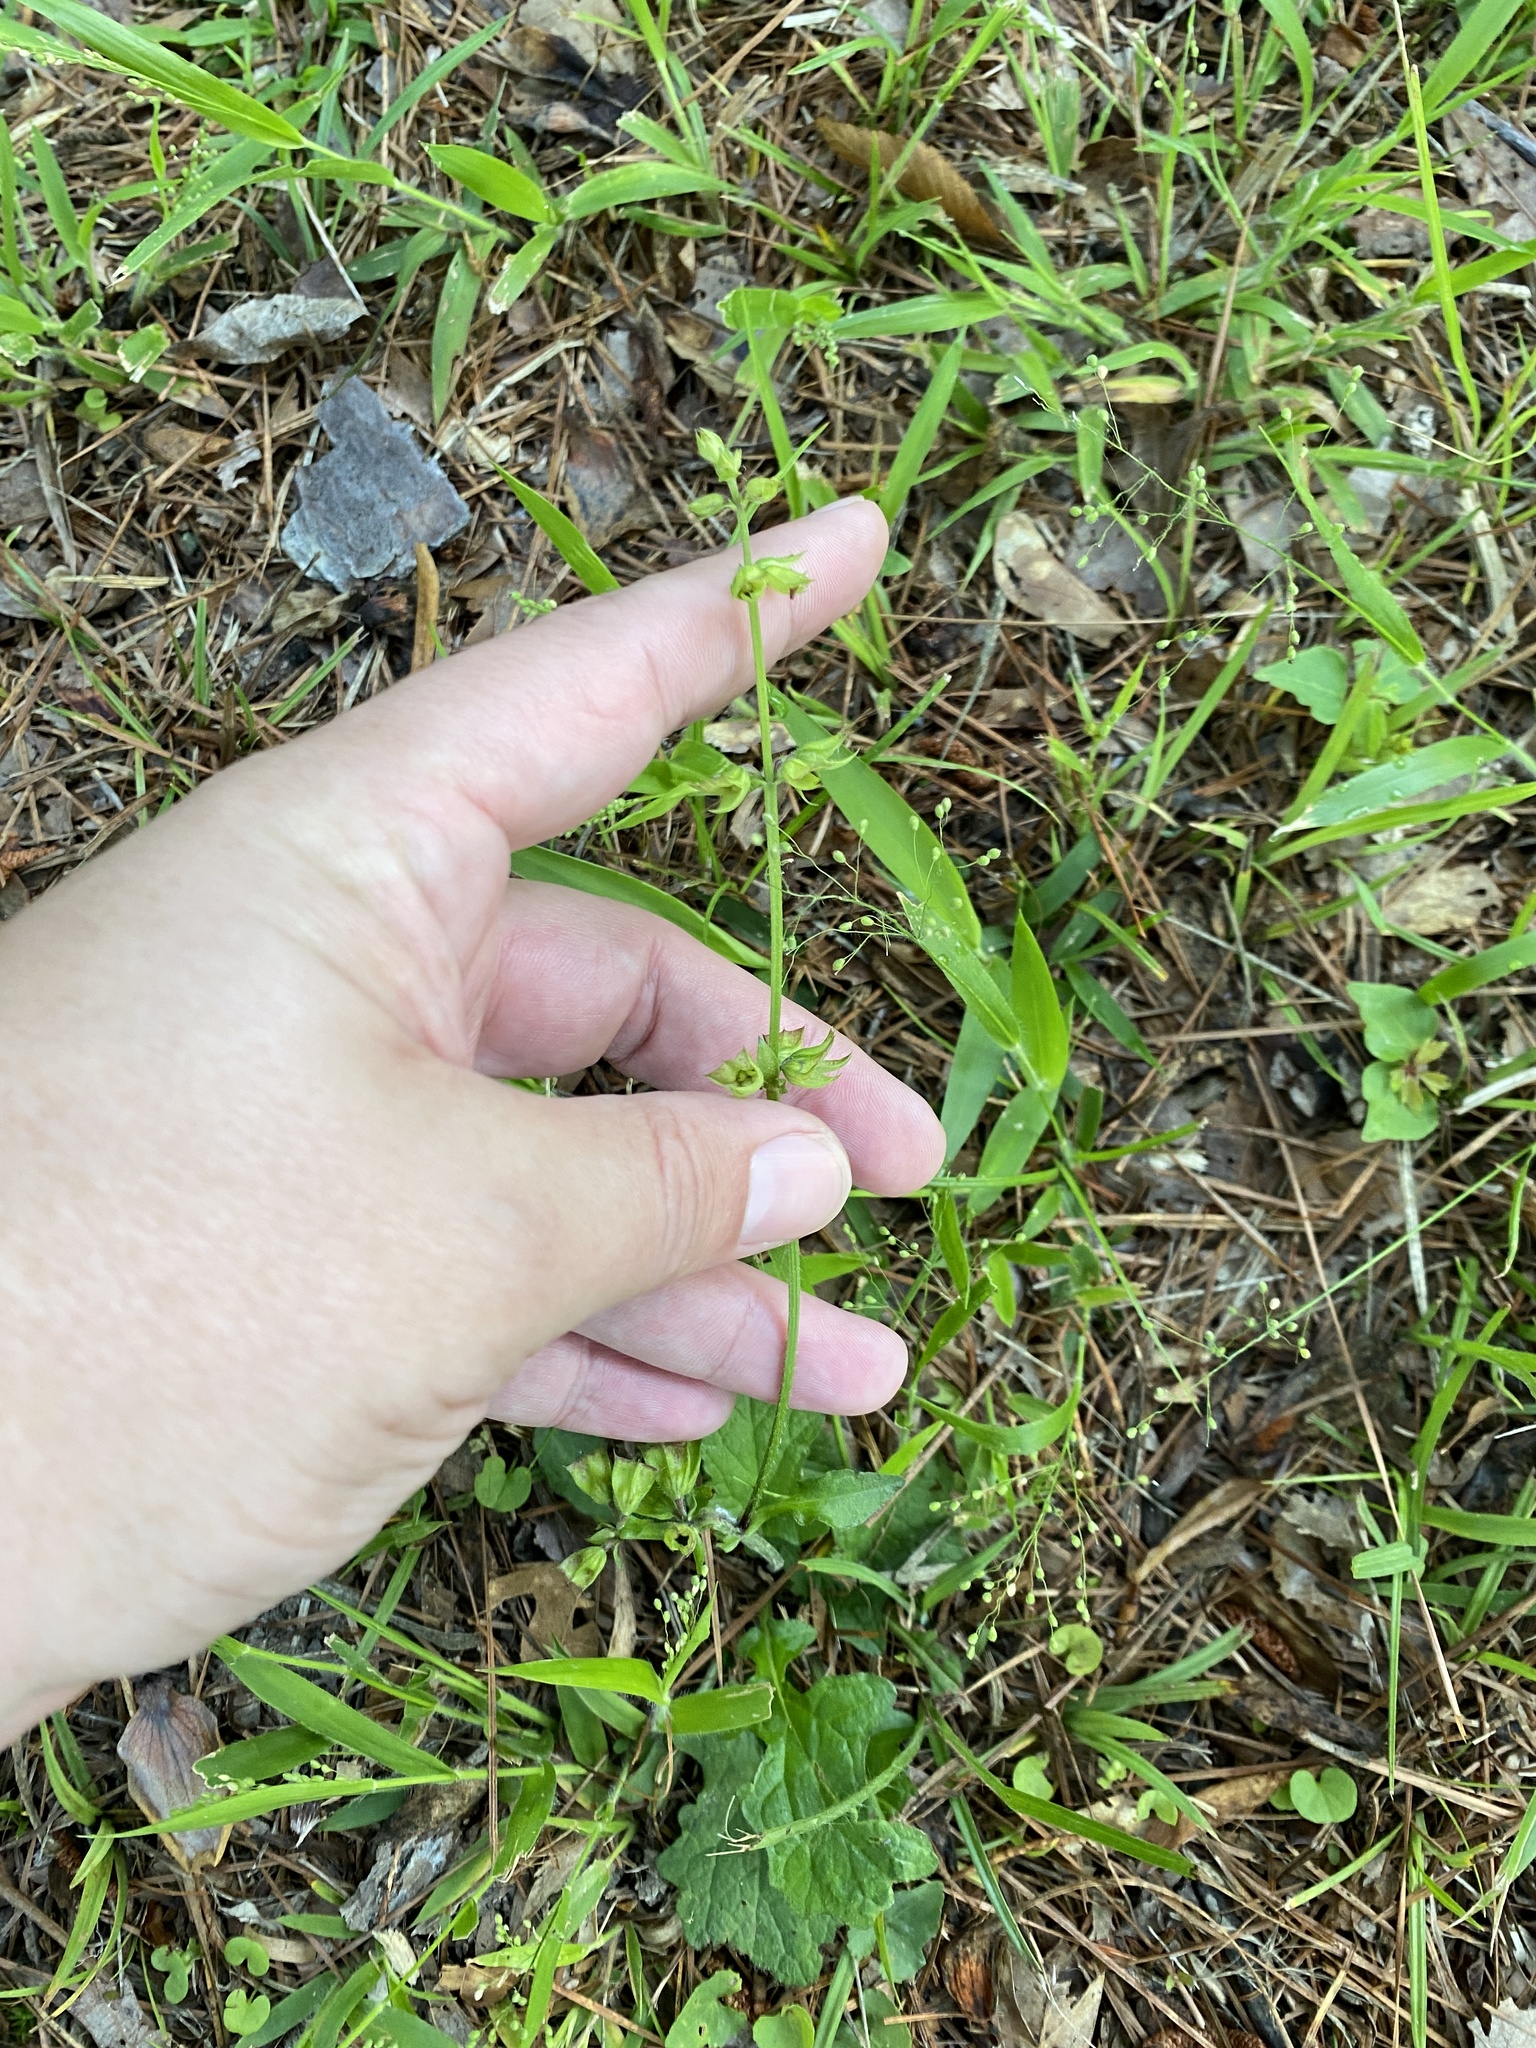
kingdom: Plantae
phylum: Tracheophyta
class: Magnoliopsida
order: Lamiales
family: Lamiaceae
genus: Salvia
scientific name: Salvia lyrata
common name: Cancerweed
